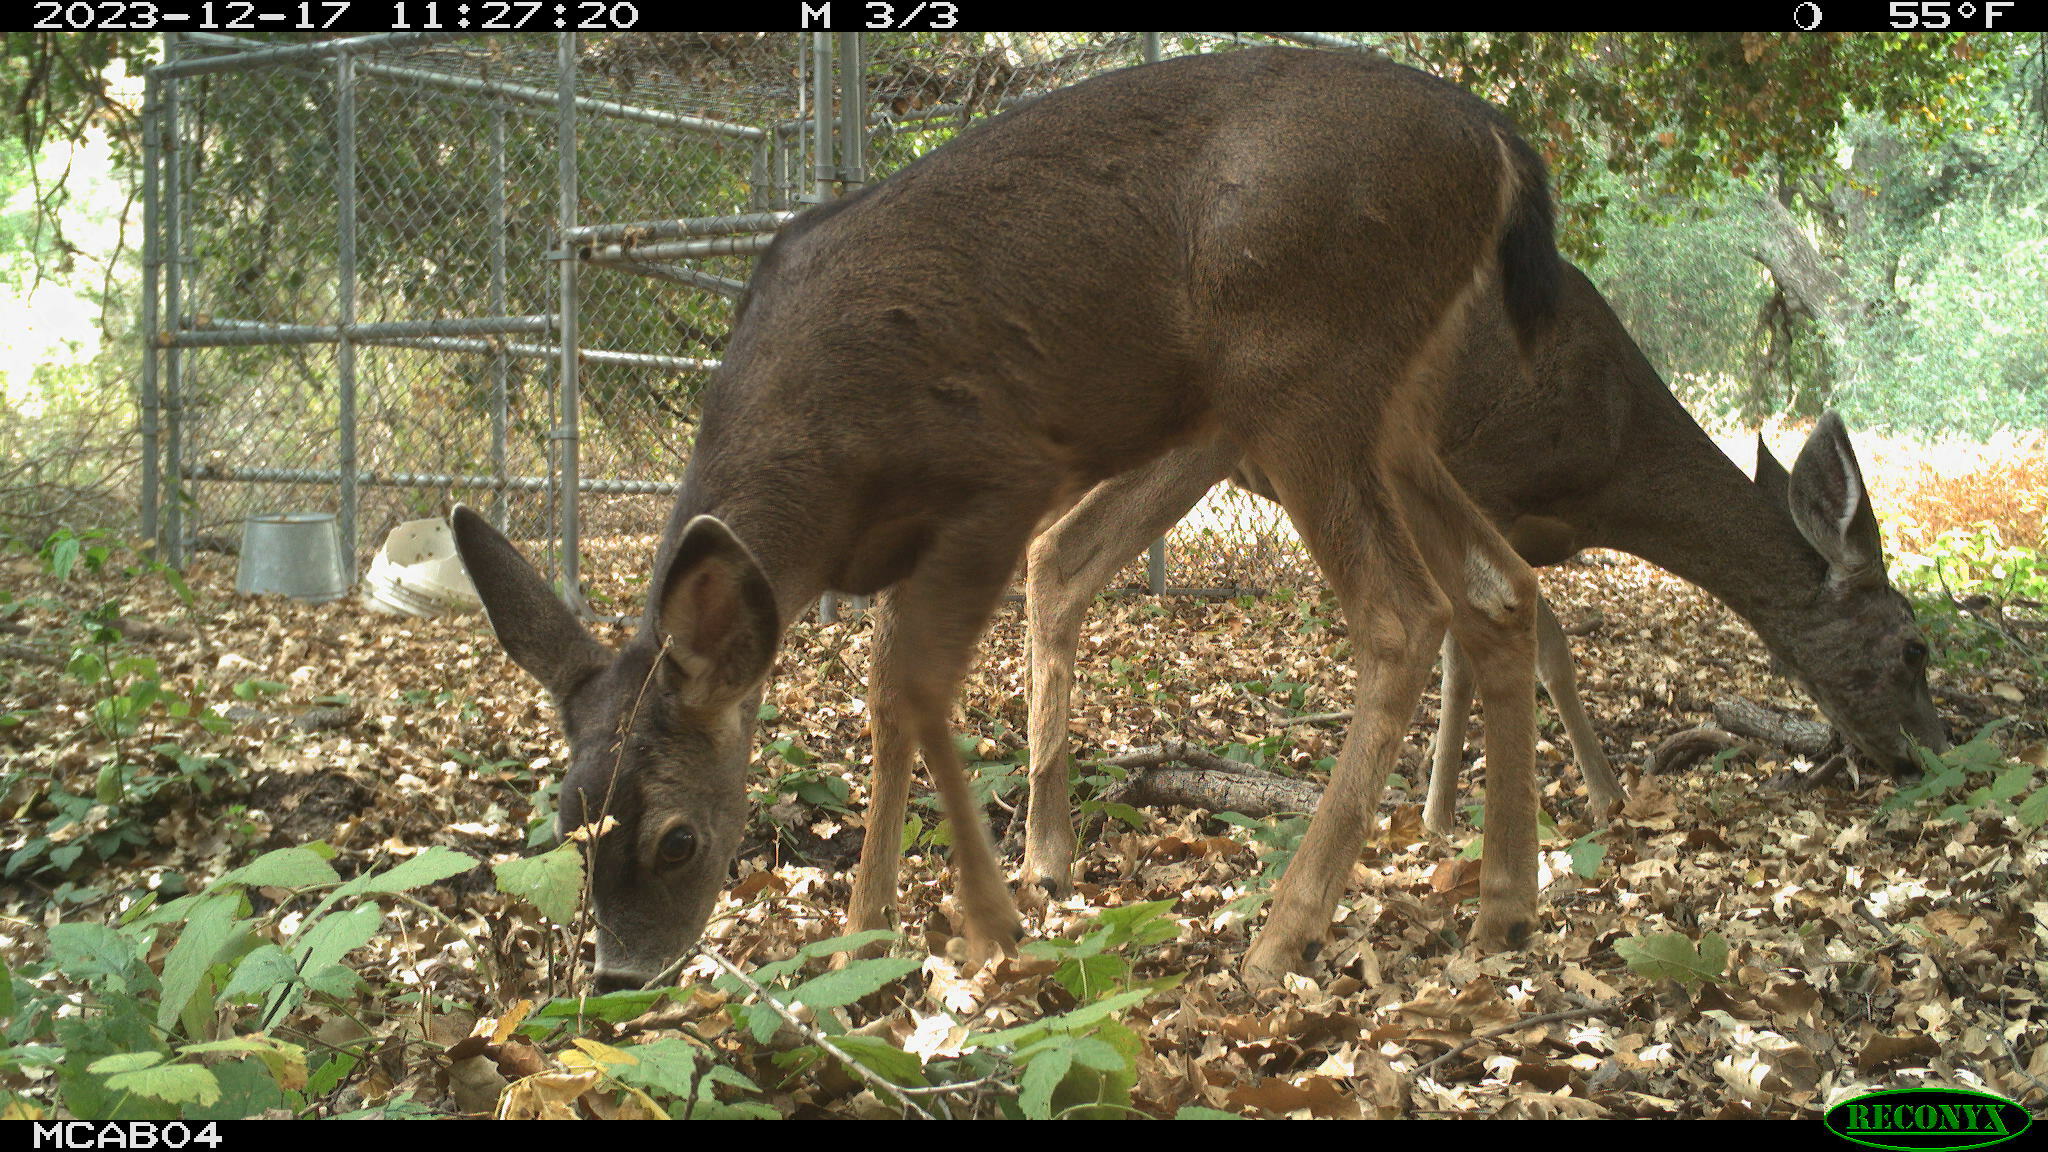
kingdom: Animalia
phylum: Chordata
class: Mammalia
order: Artiodactyla
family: Cervidae
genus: Odocoileus
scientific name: Odocoileus hemionus
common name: Mule deer
